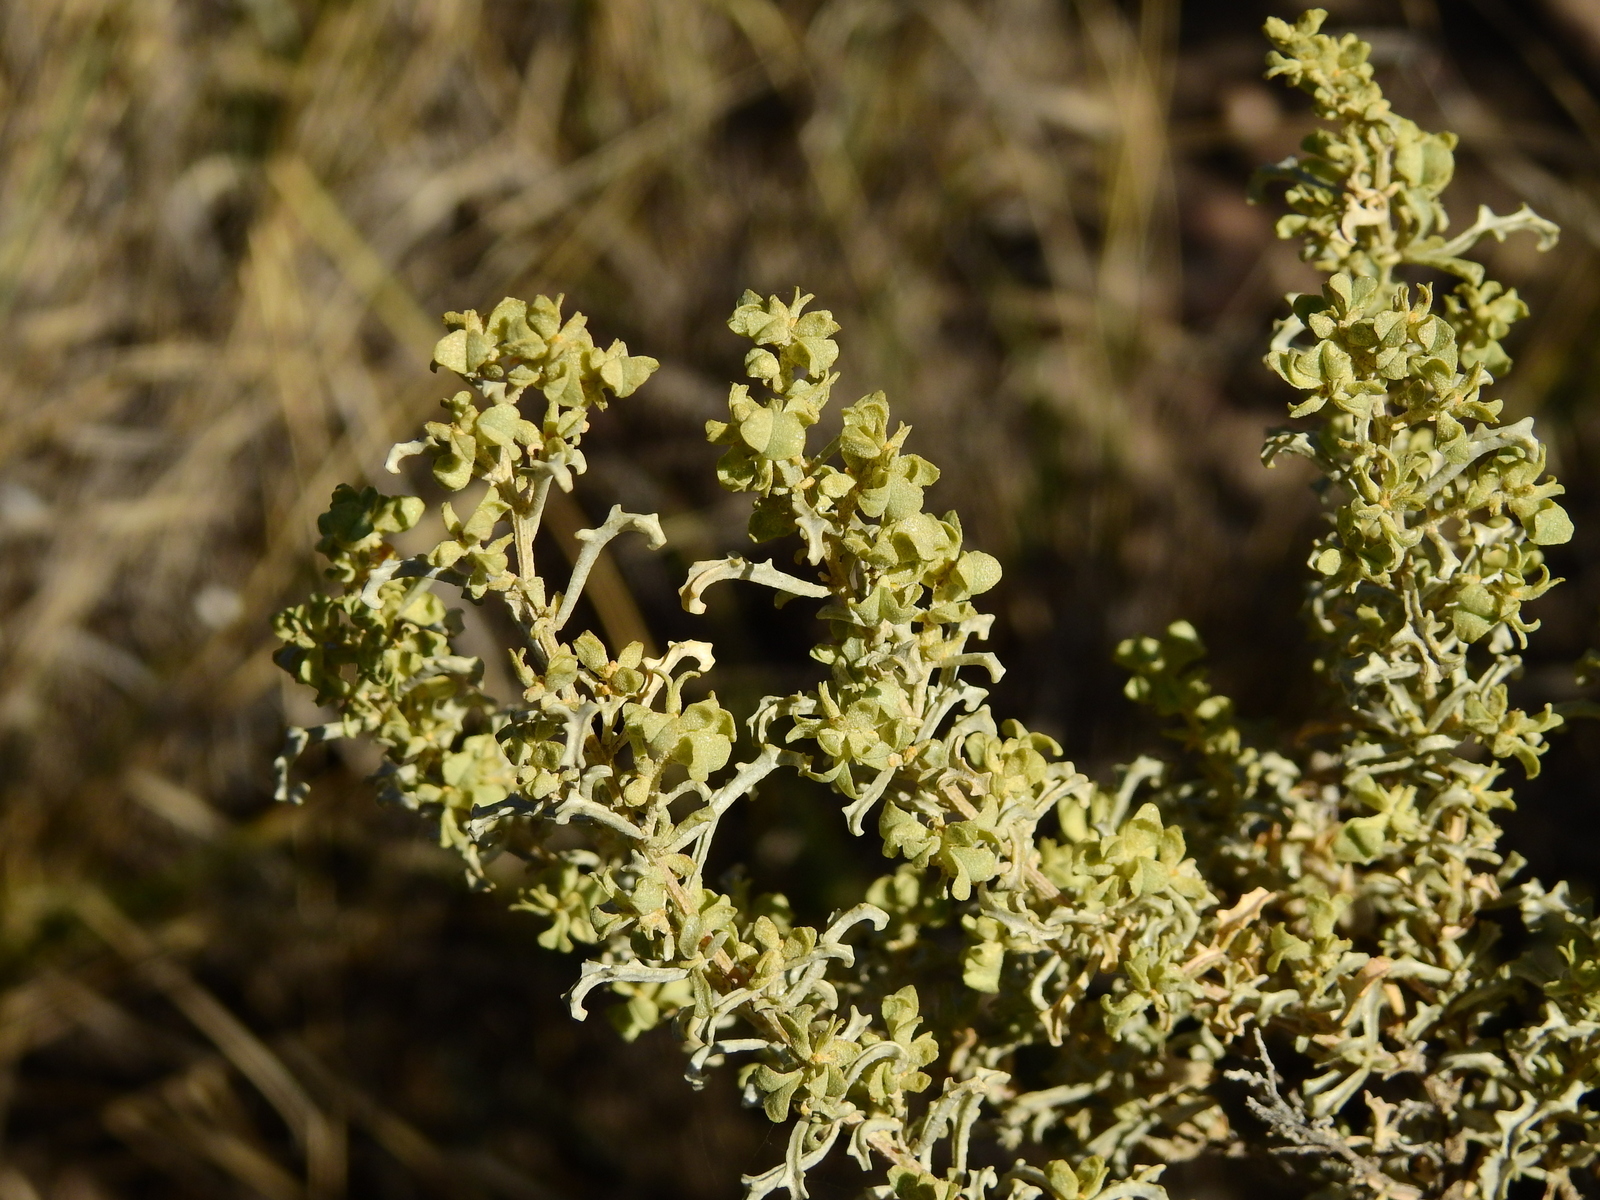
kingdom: Plantae
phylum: Tracheophyta
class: Magnoliopsida
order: Caryophyllales
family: Amaranthaceae
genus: Atriplex
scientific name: Atriplex lampa
